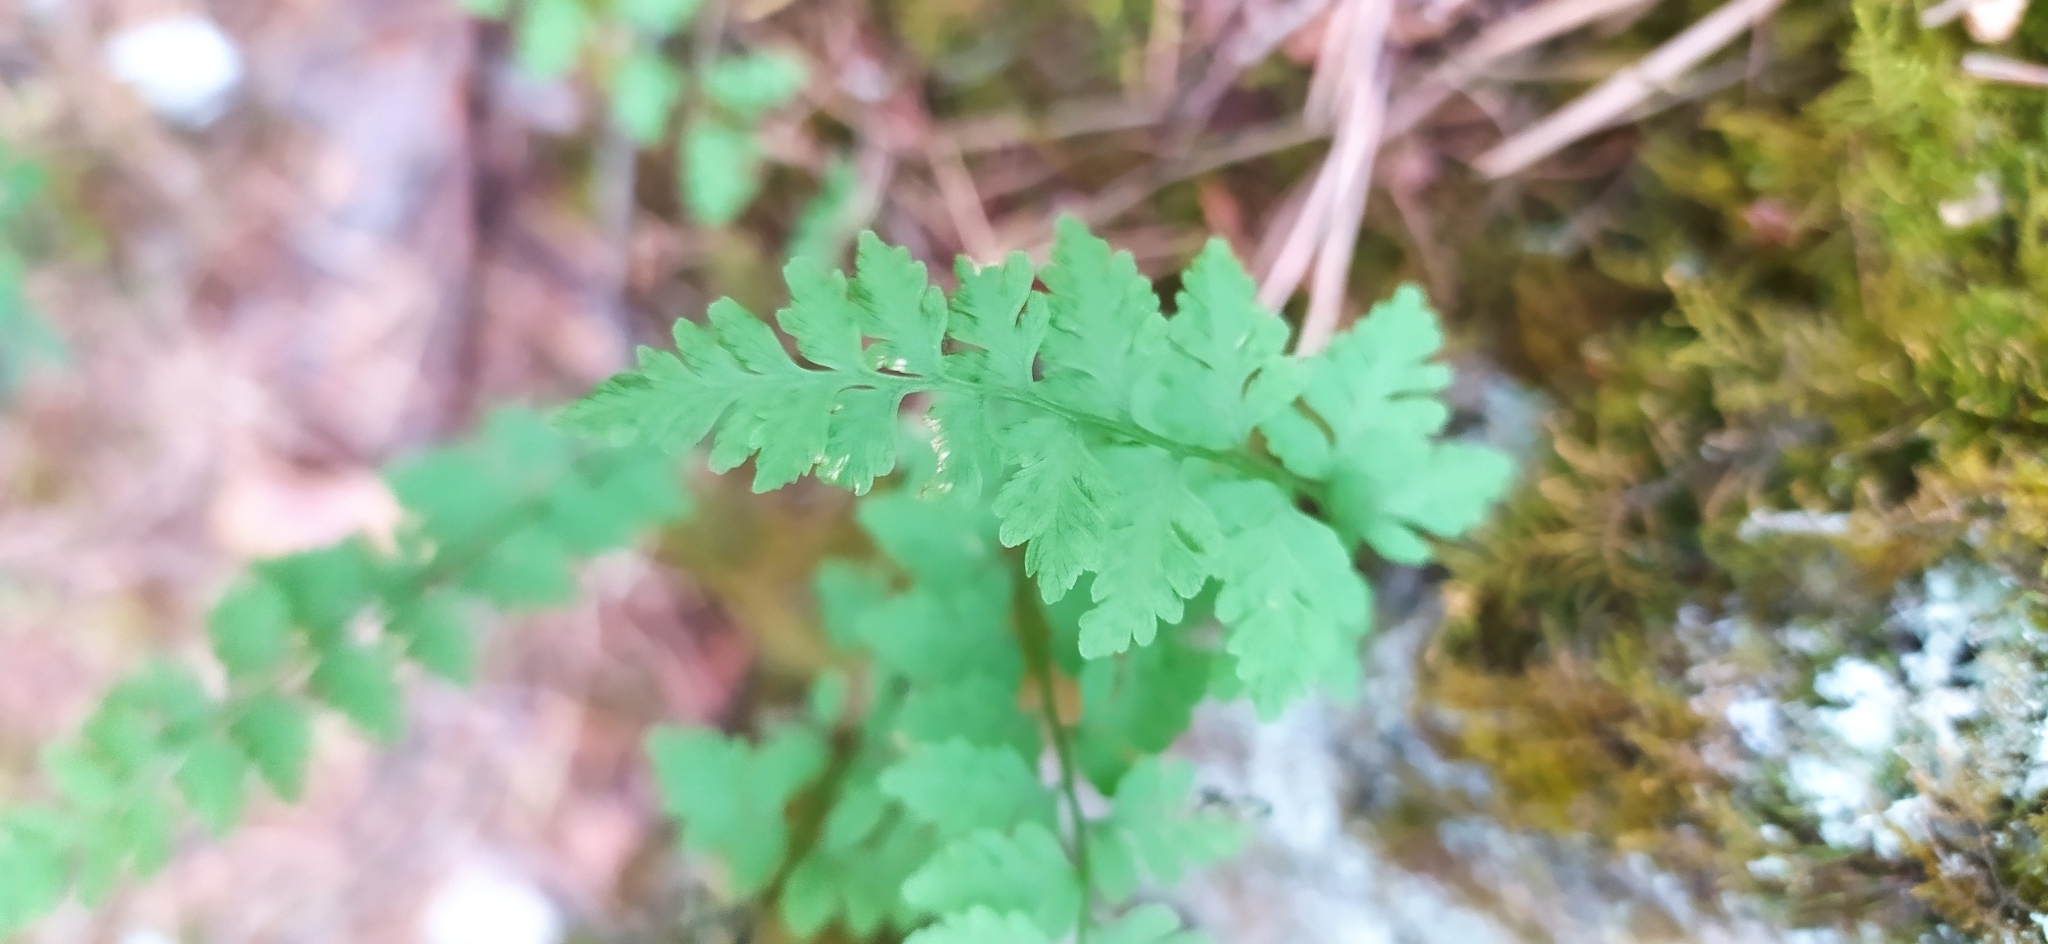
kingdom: Plantae
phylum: Tracheophyta
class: Polypodiopsida
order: Polypodiales
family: Woodsiaceae
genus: Woodsia
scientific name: Woodsia alpina
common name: Alpine woodsia
